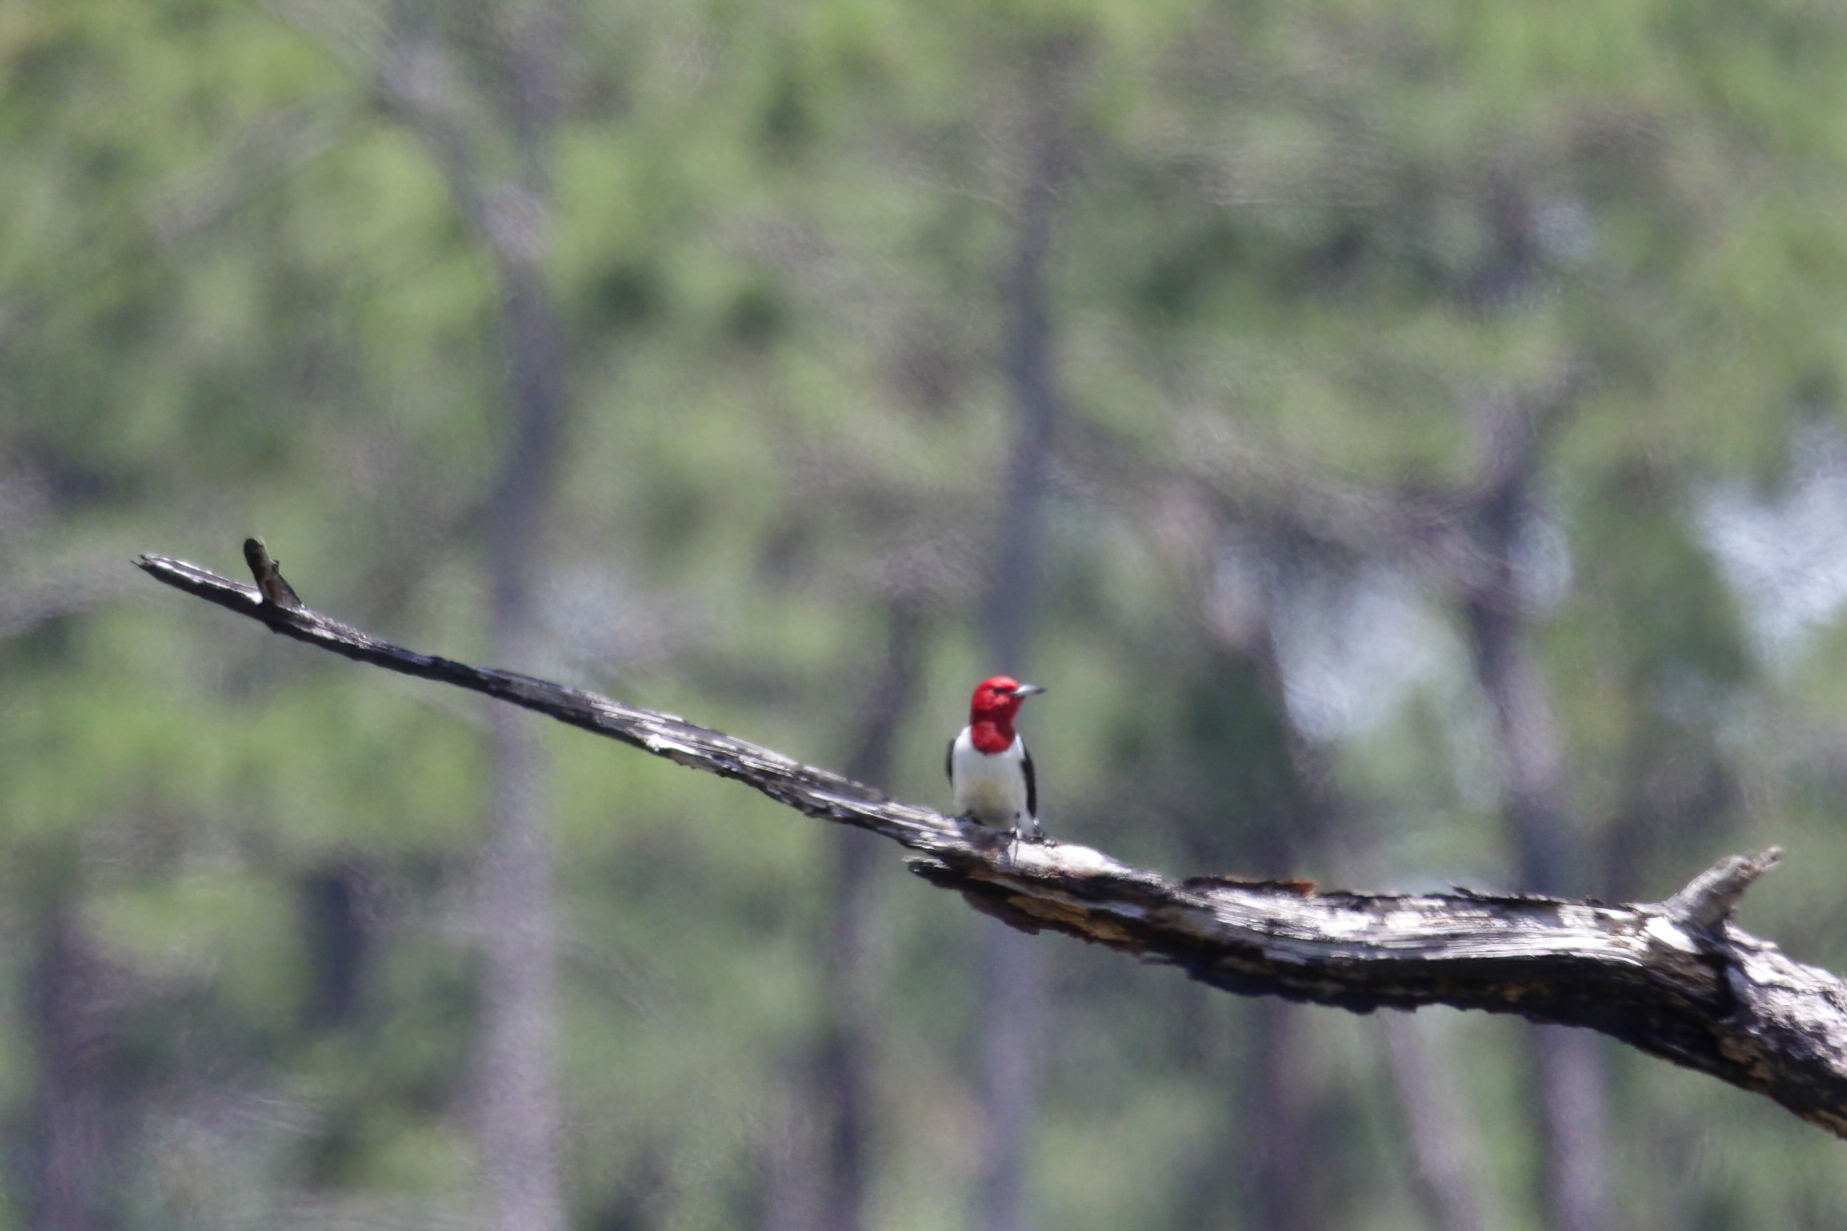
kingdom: Animalia
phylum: Chordata
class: Aves
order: Piciformes
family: Picidae
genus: Melanerpes
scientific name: Melanerpes erythrocephalus
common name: Red-headed woodpecker
